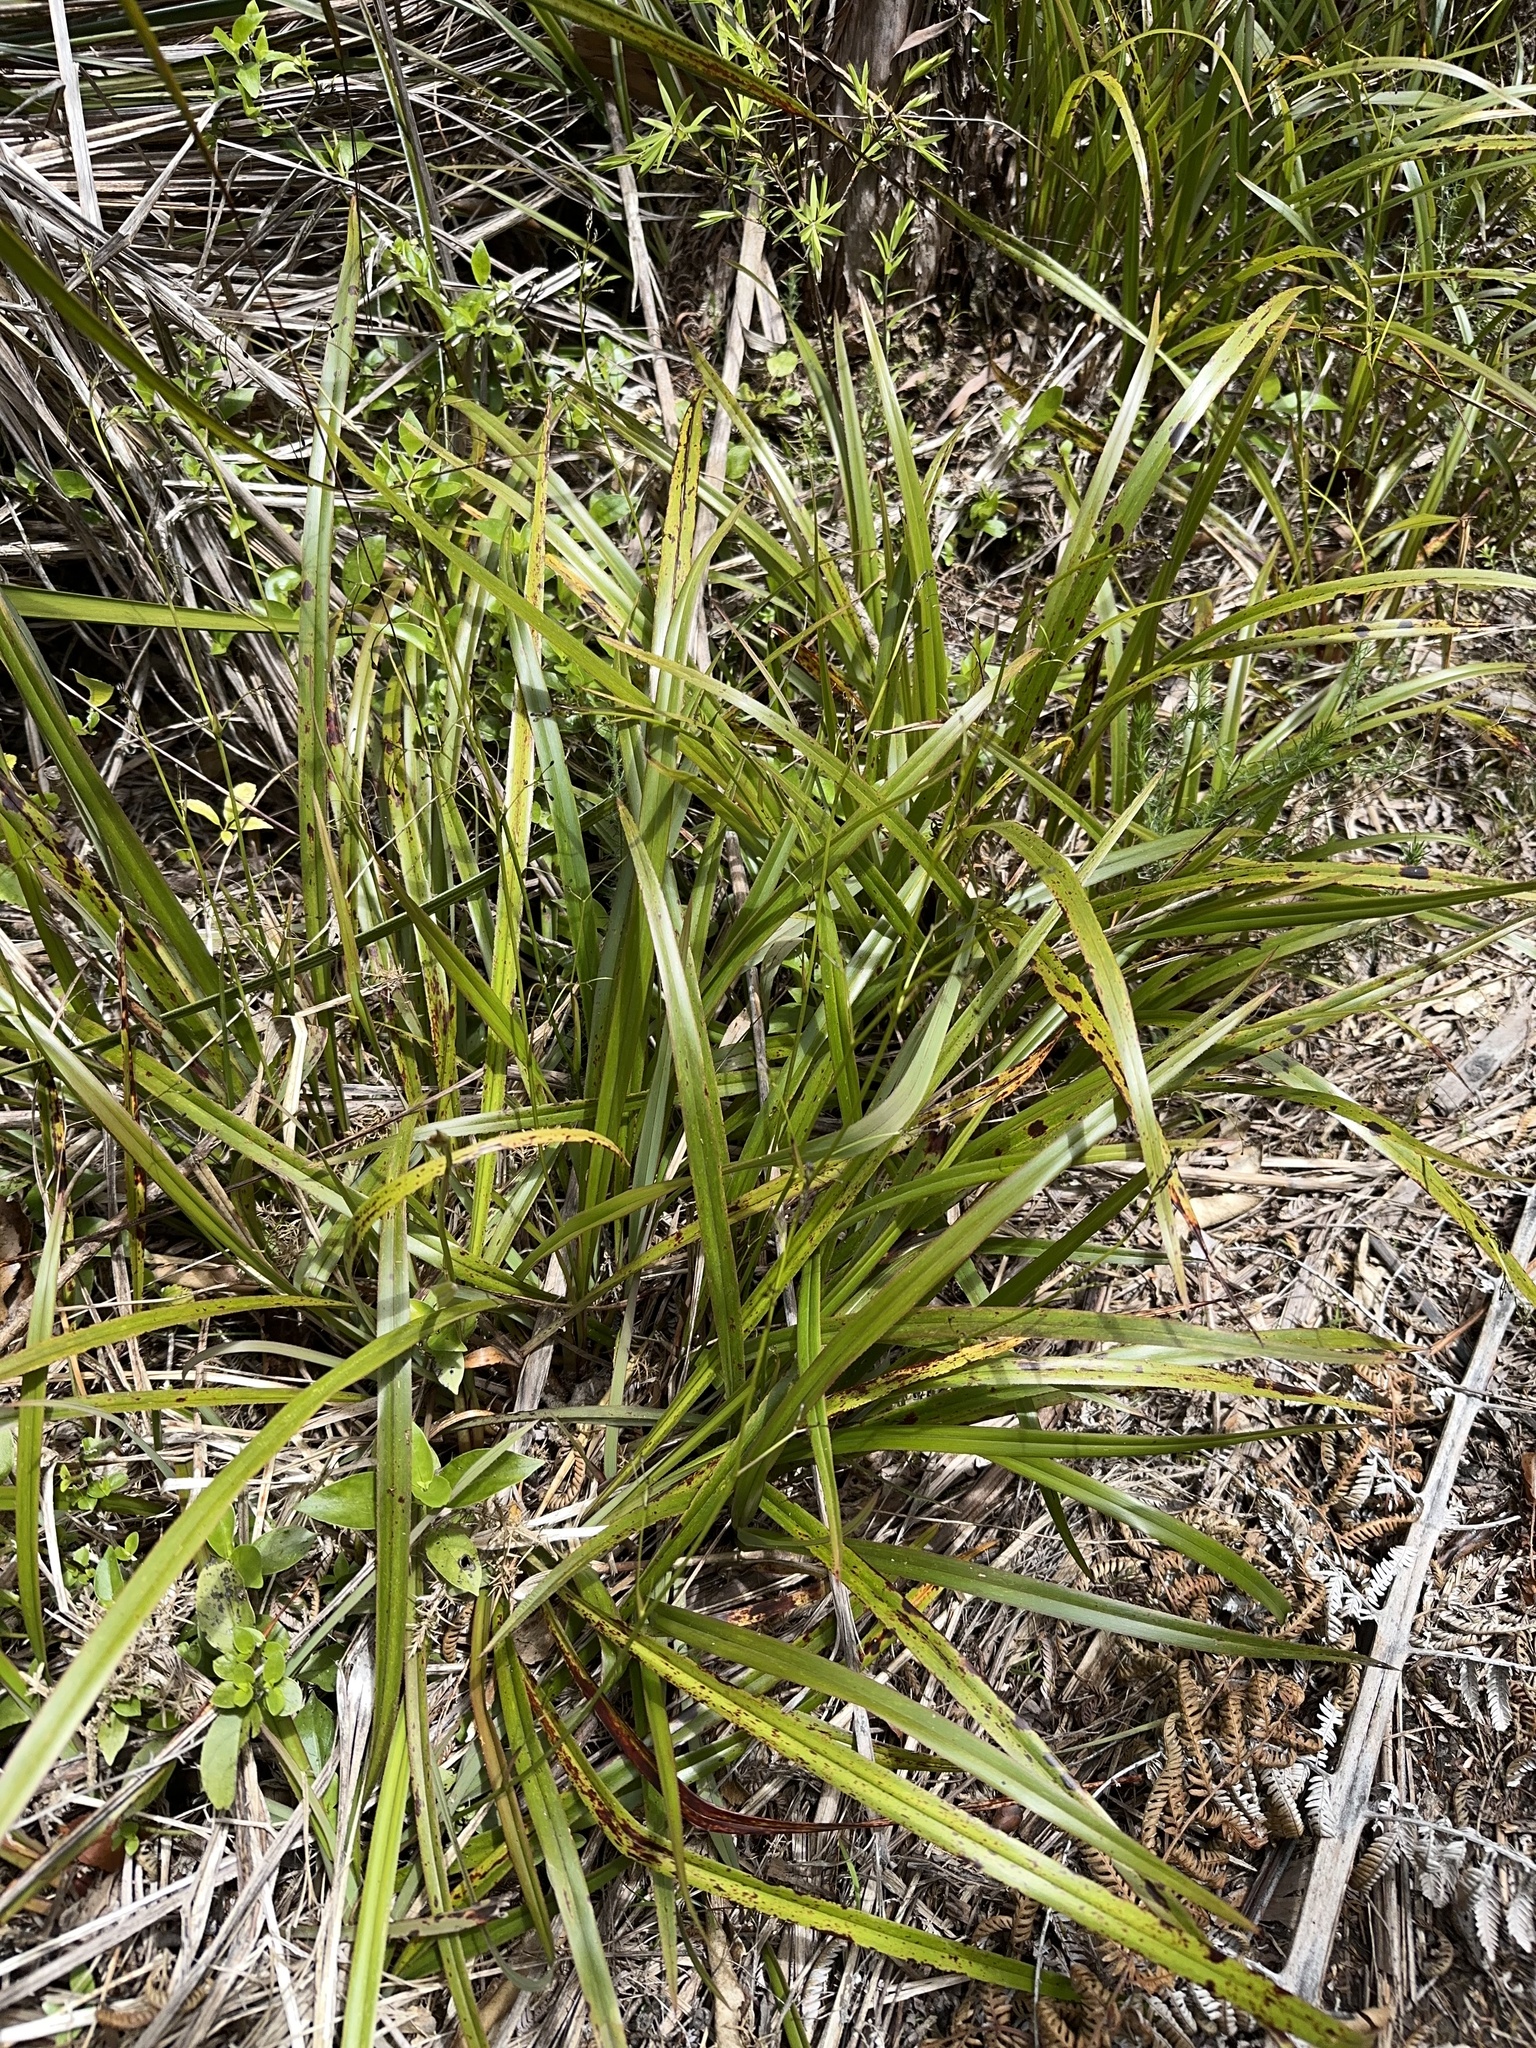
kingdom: Plantae
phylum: Tracheophyta
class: Liliopsida
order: Asparagales
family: Asphodelaceae
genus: Dianella
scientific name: Dianella nigra
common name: New zealand-blueberry
